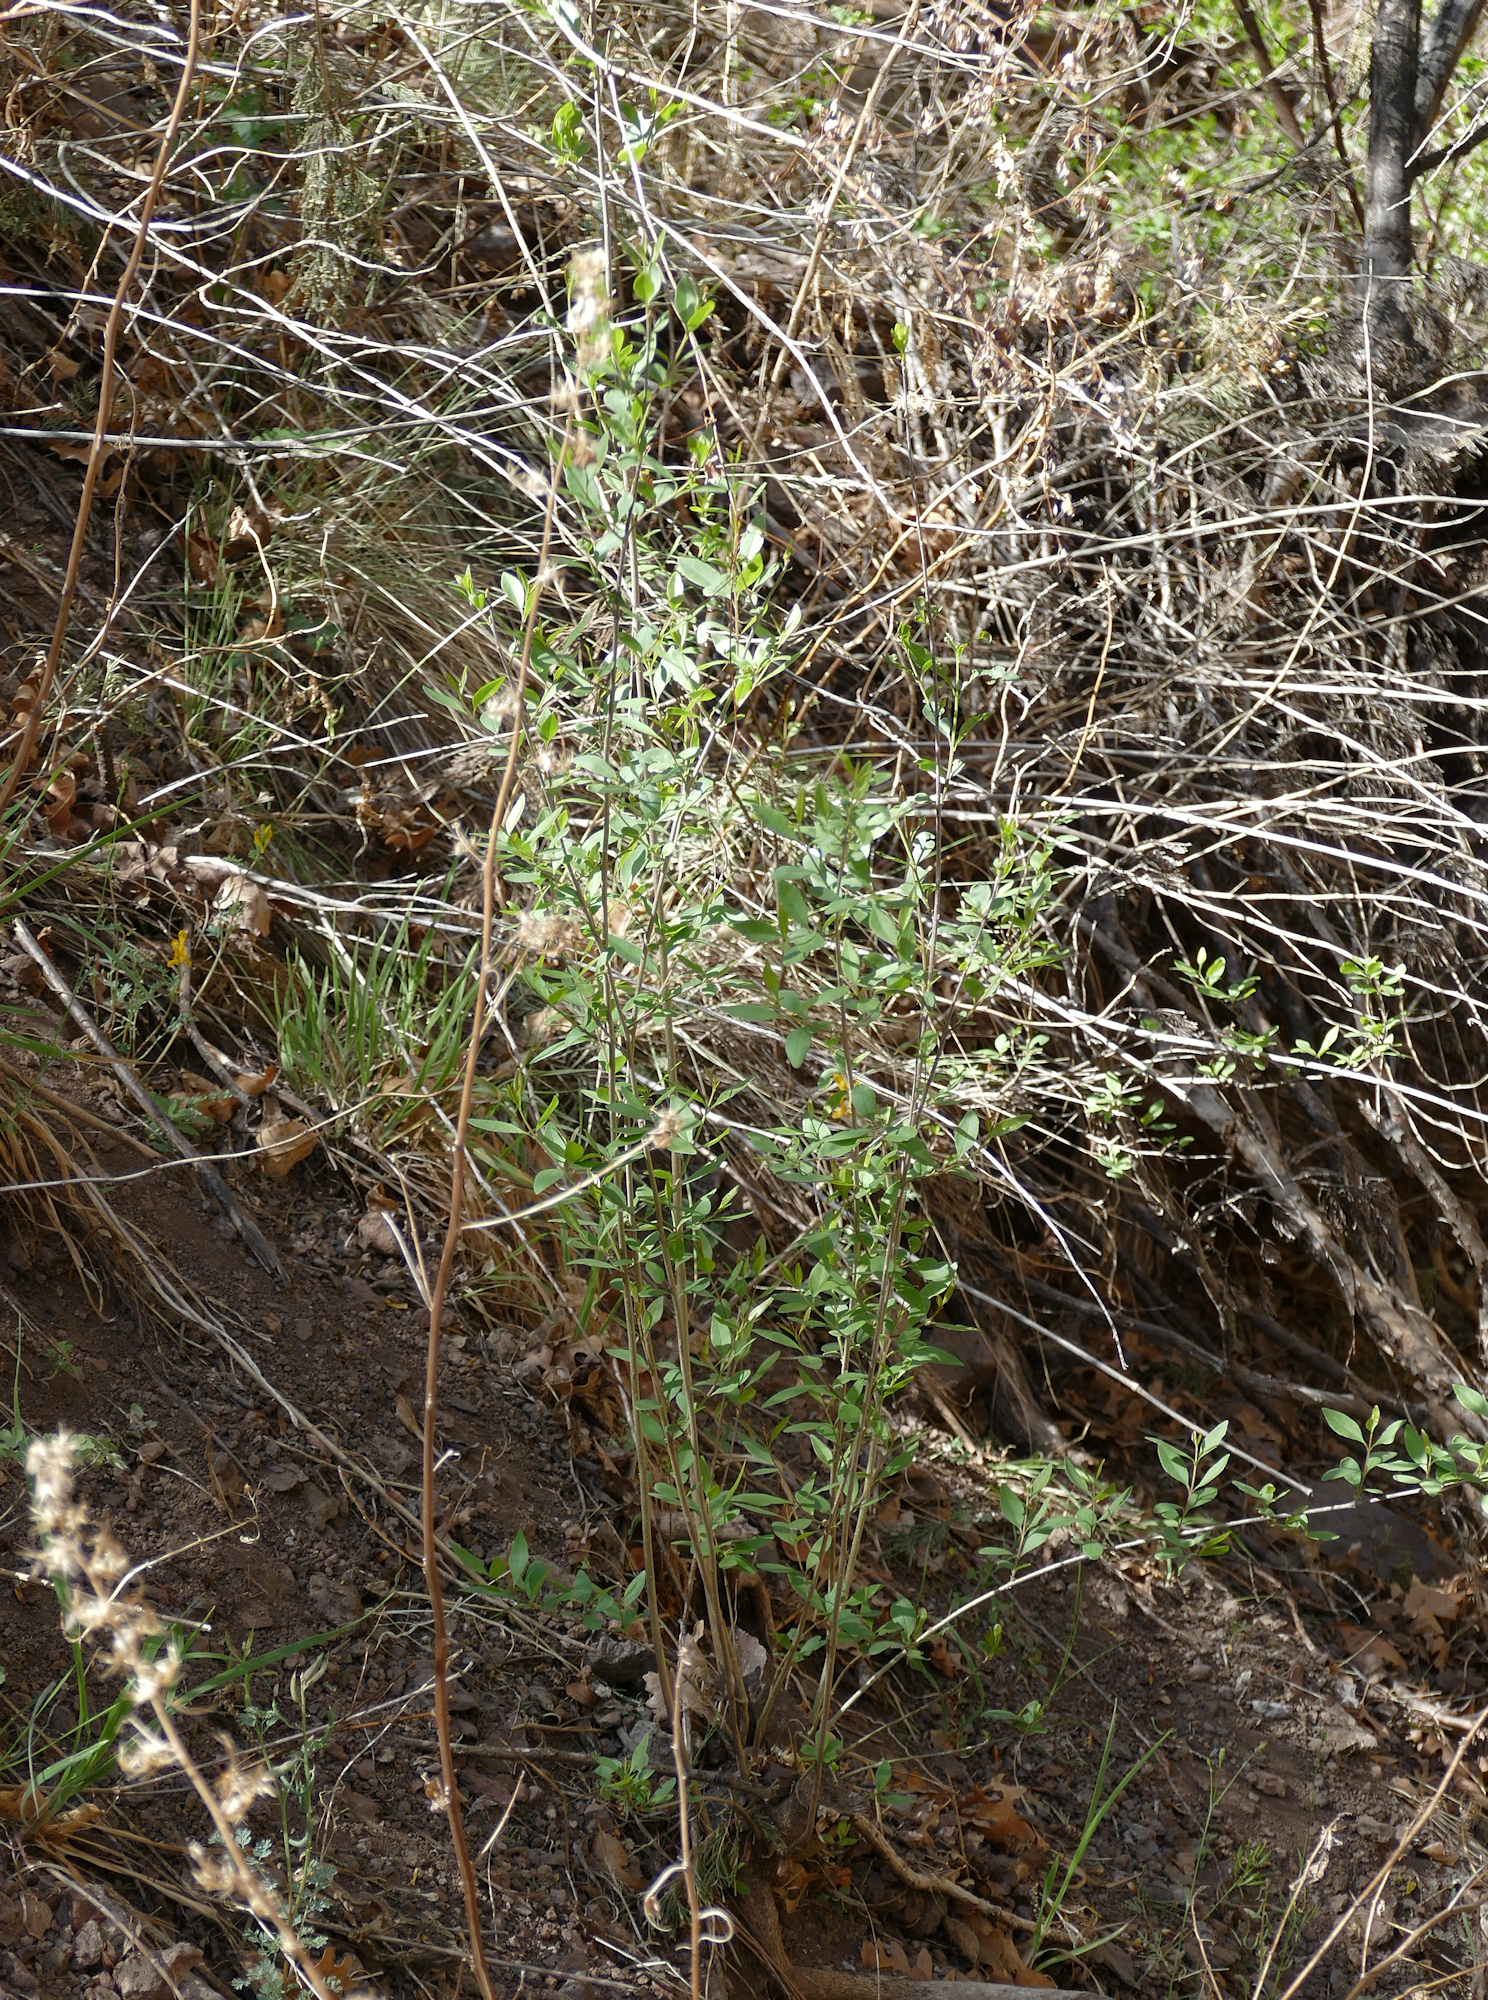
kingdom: Plantae
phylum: Tracheophyta
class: Magnoliopsida
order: Lamiales
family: Oleaceae
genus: Forestiera
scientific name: Forestiera pubescens
